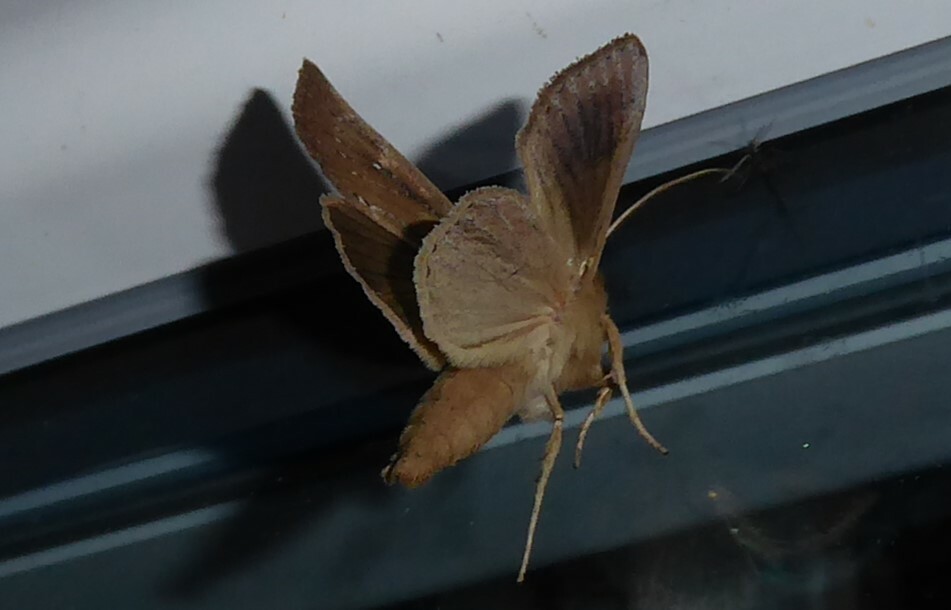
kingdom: Animalia
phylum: Arthropoda
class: Insecta
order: Lepidoptera
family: Noctuidae
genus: Ichneutica
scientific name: Ichneutica
